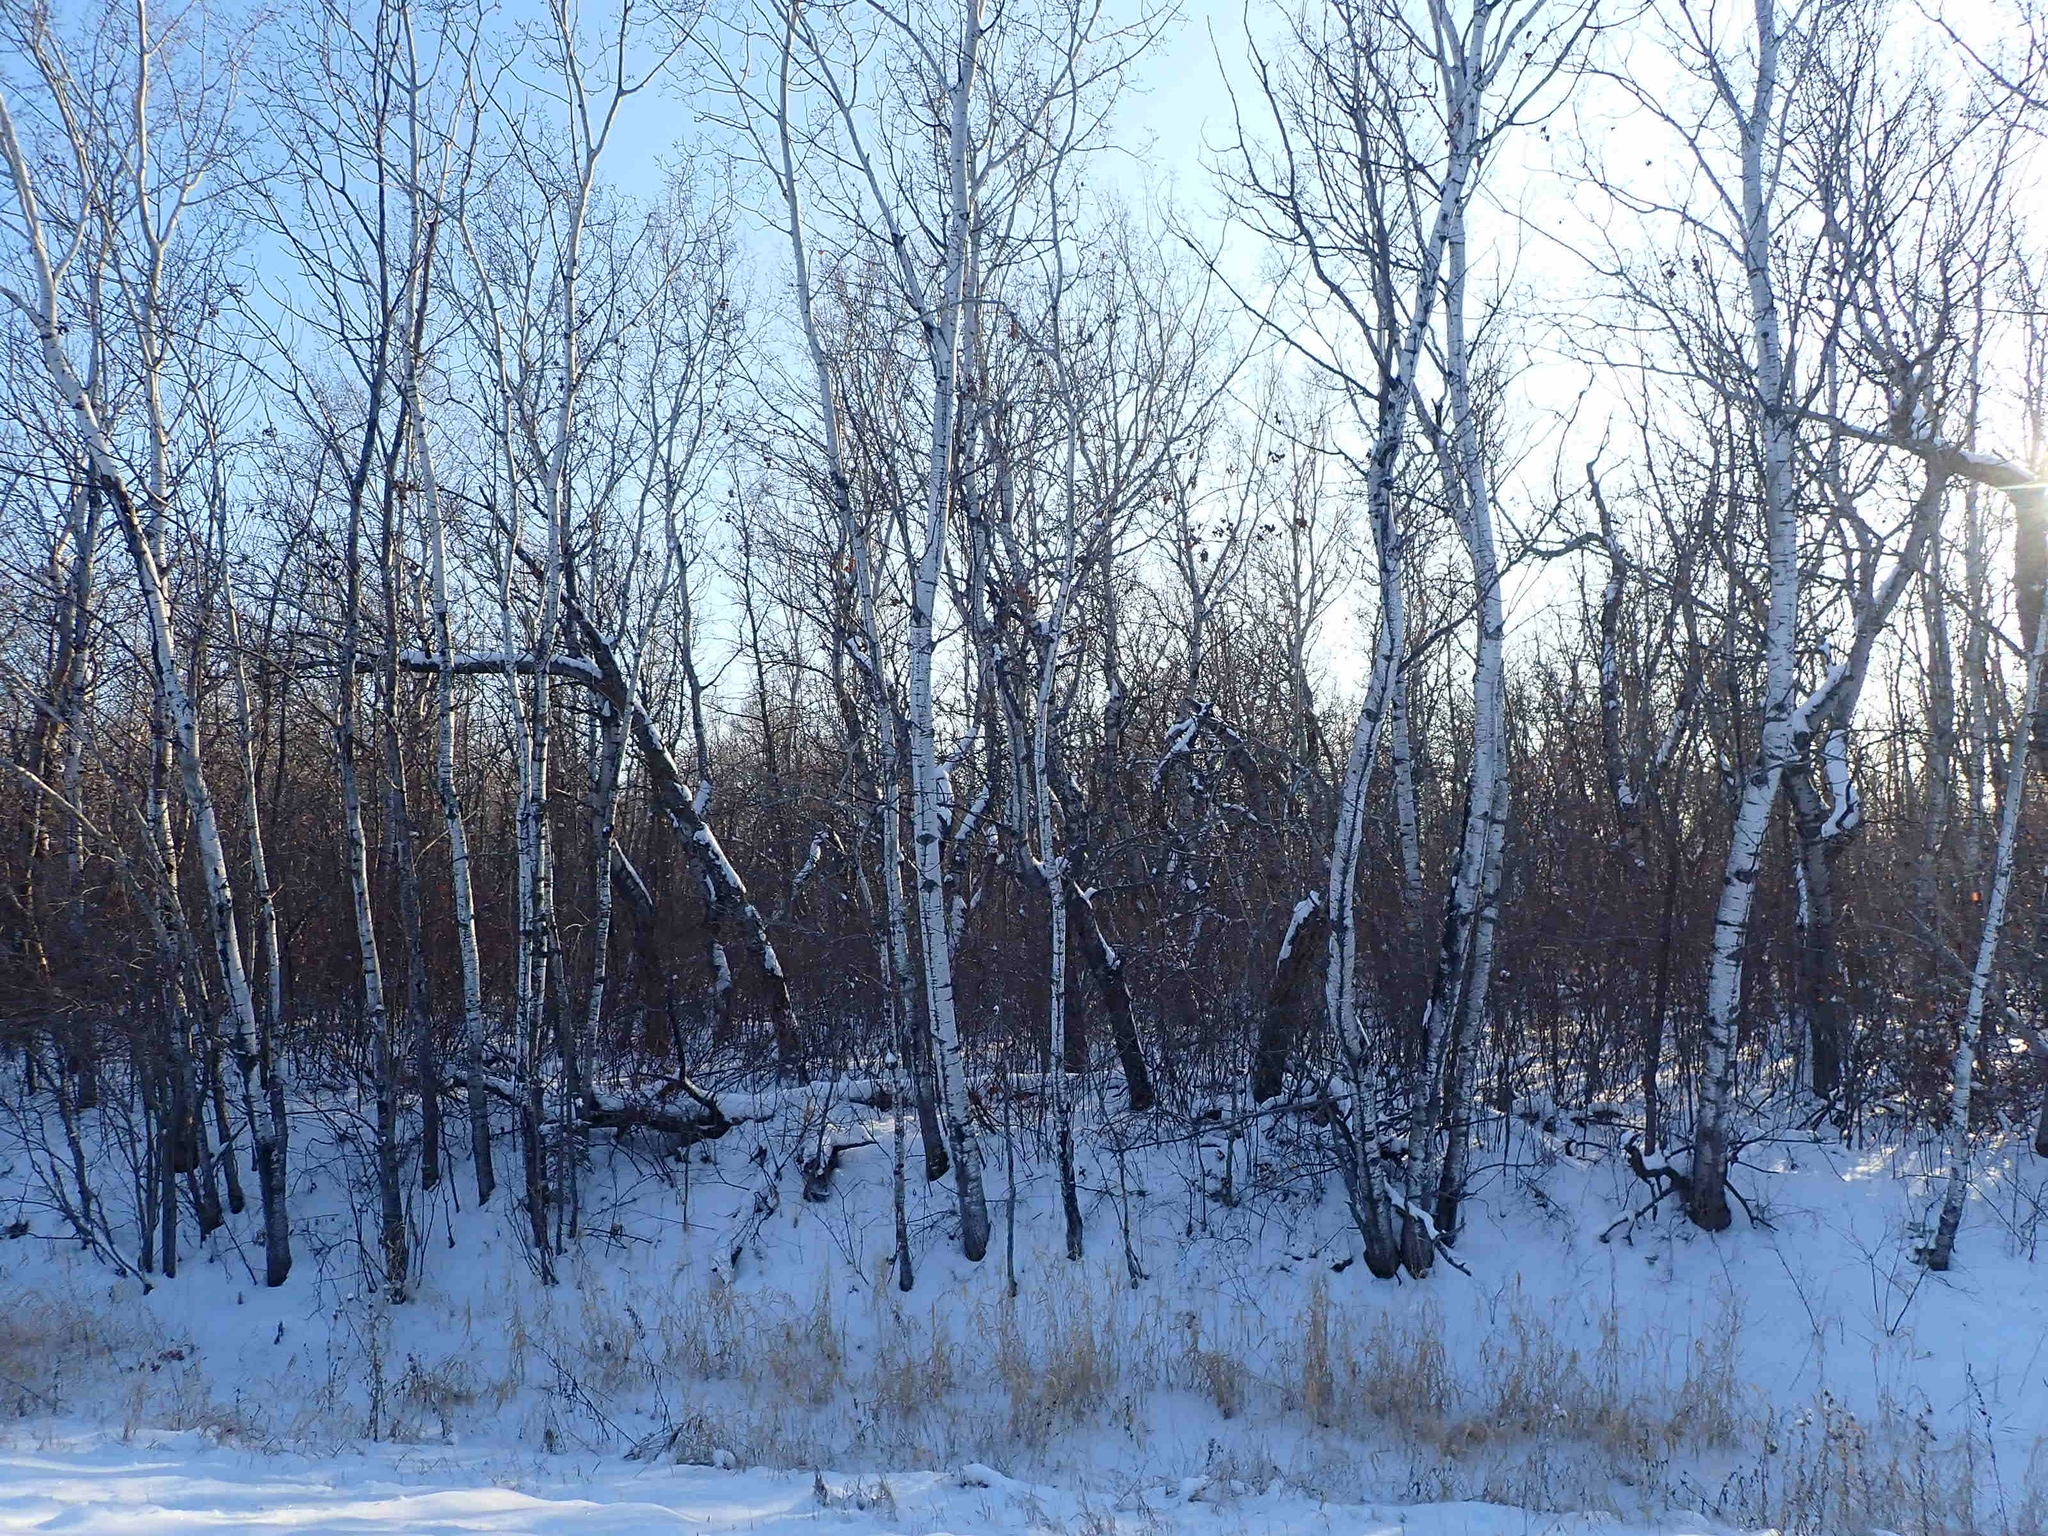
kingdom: Plantae
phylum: Tracheophyta
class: Magnoliopsida
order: Malpighiales
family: Salicaceae
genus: Populus
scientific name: Populus tremuloides
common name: Quaking aspen
